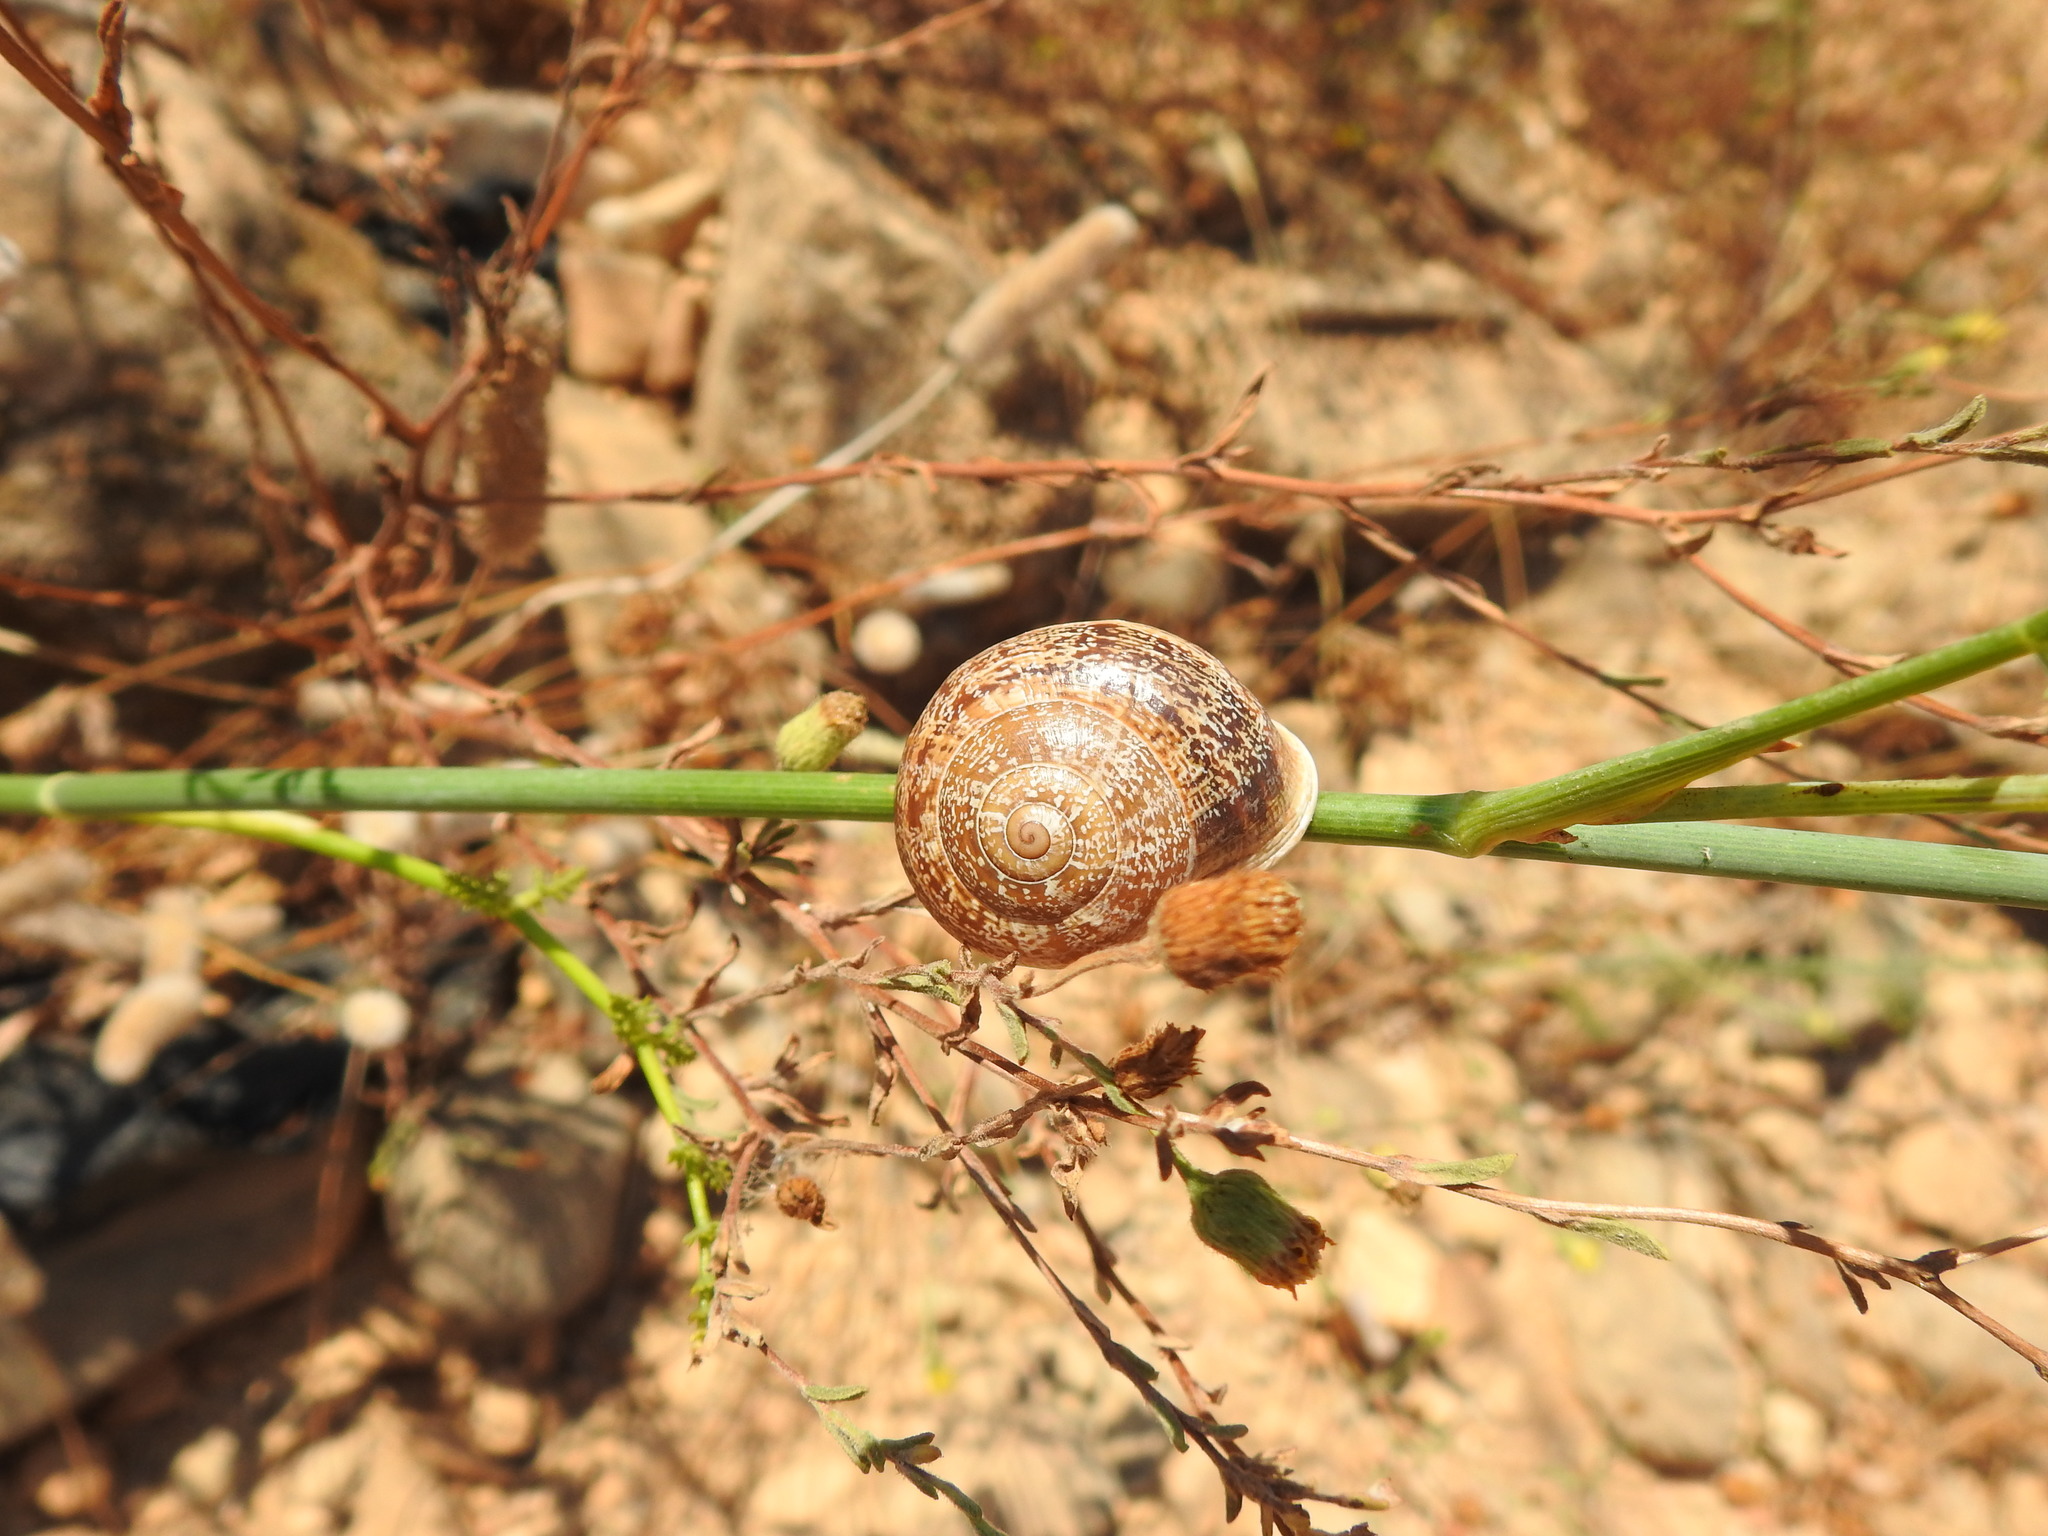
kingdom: Animalia
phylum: Mollusca
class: Gastropoda
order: Stylommatophora
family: Helicidae
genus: Otala
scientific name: Otala lactea
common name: Milk snail
